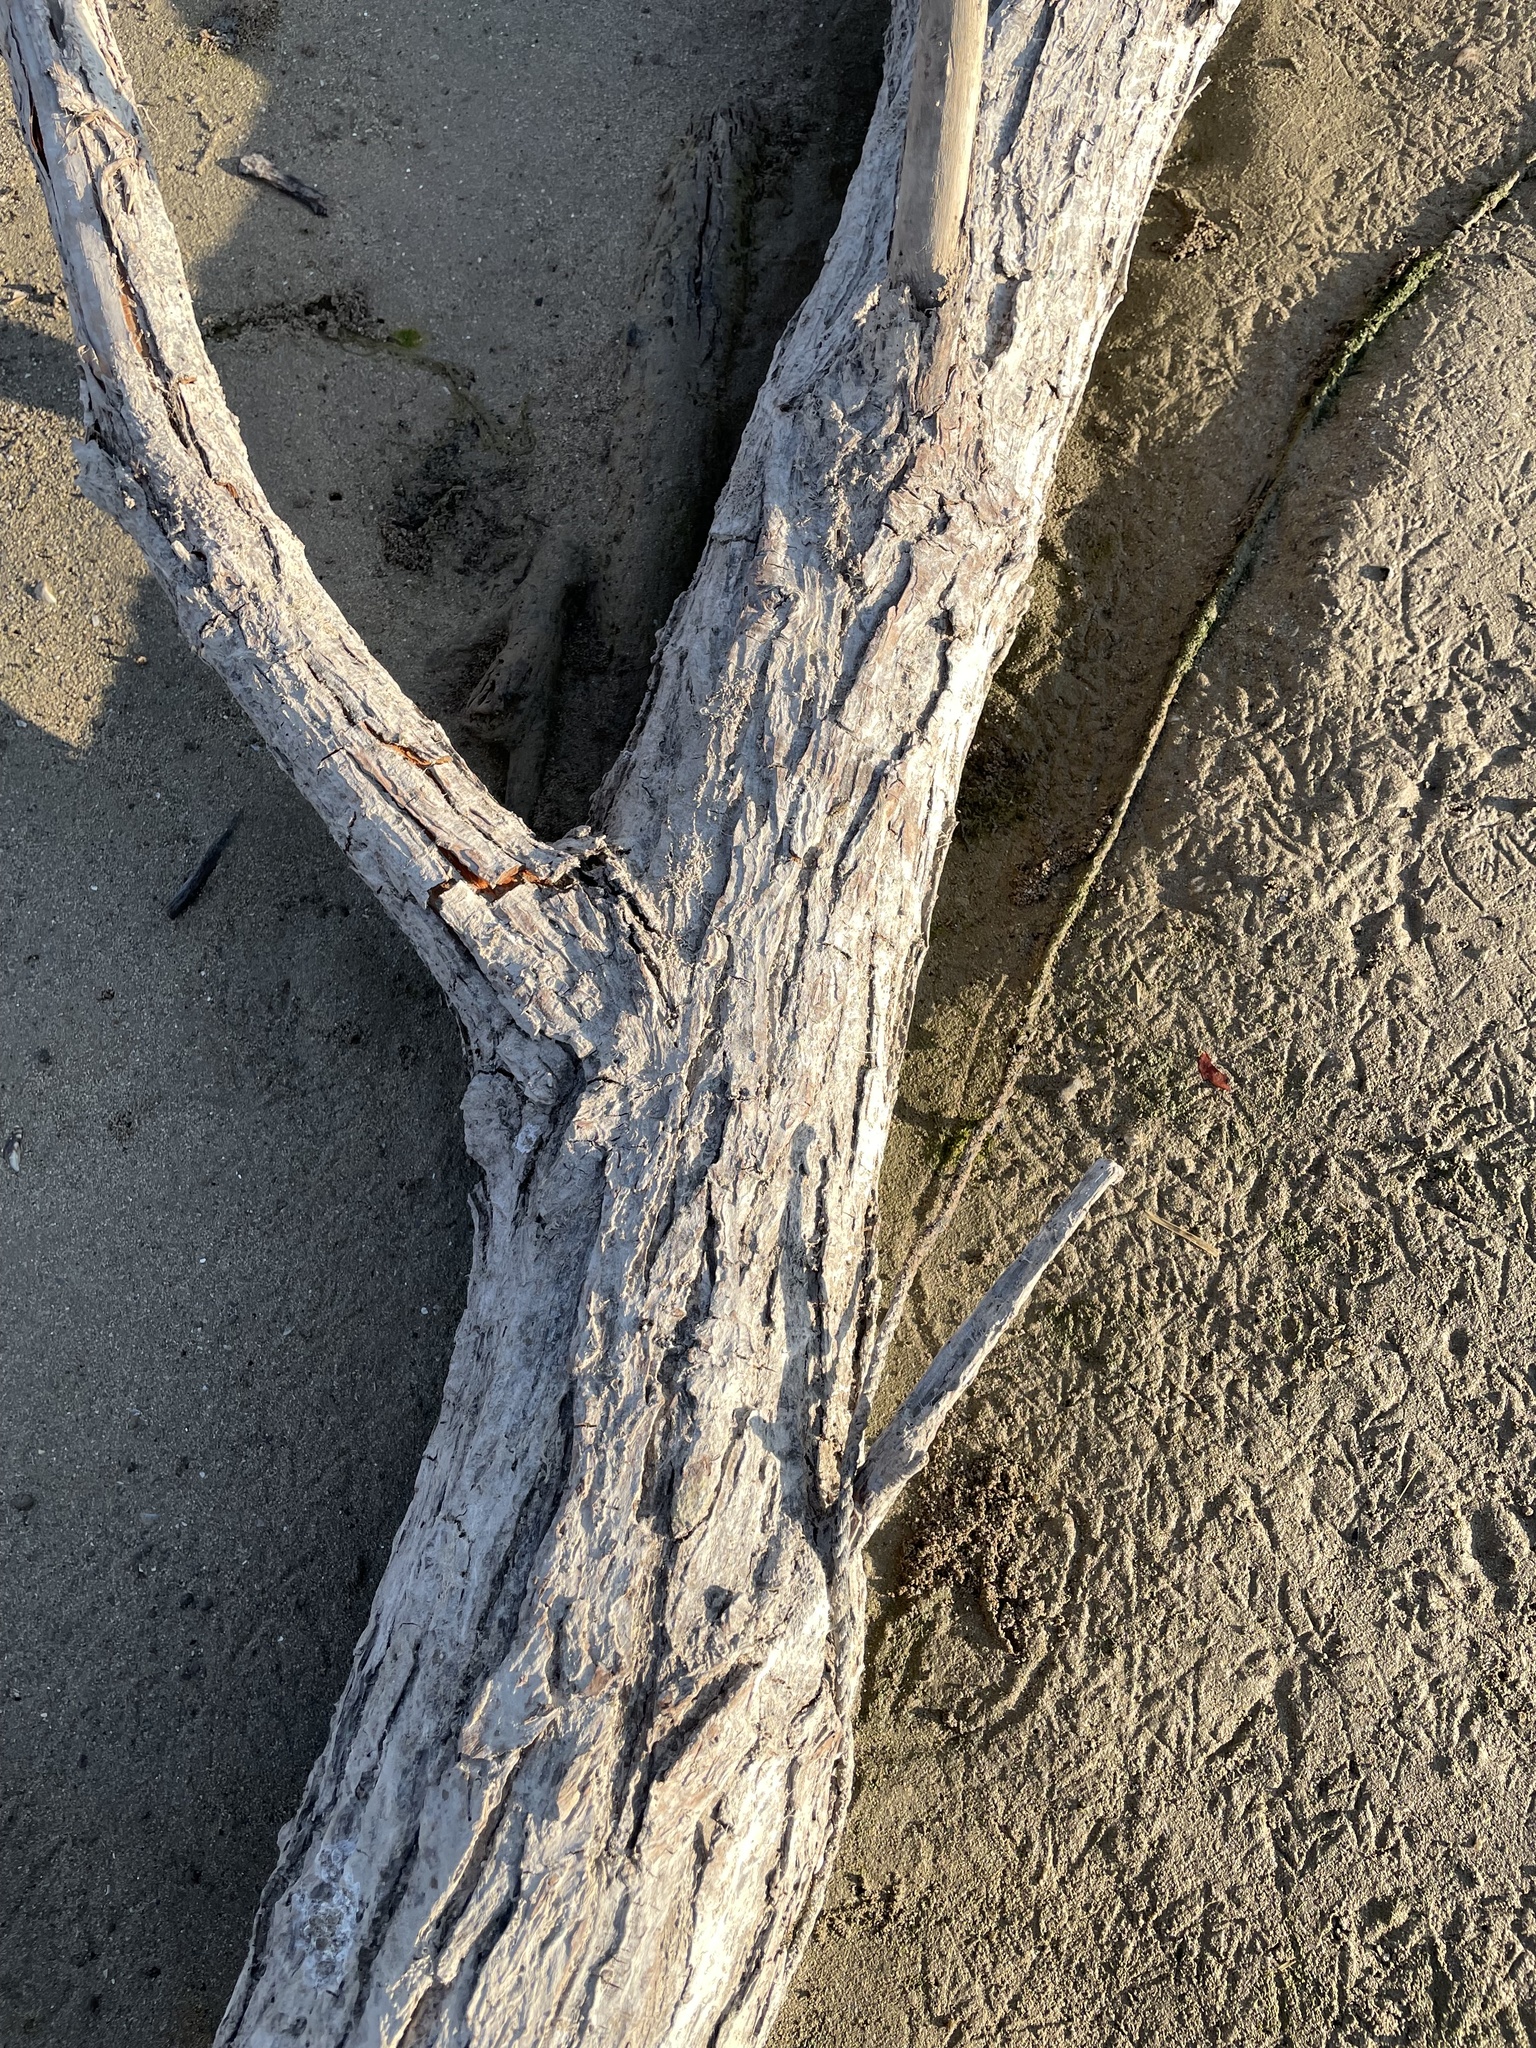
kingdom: Plantae
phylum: Tracheophyta
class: Magnoliopsida
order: Malpighiales
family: Salicaceae
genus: Salix
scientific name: Salix nigra
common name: Black willow
